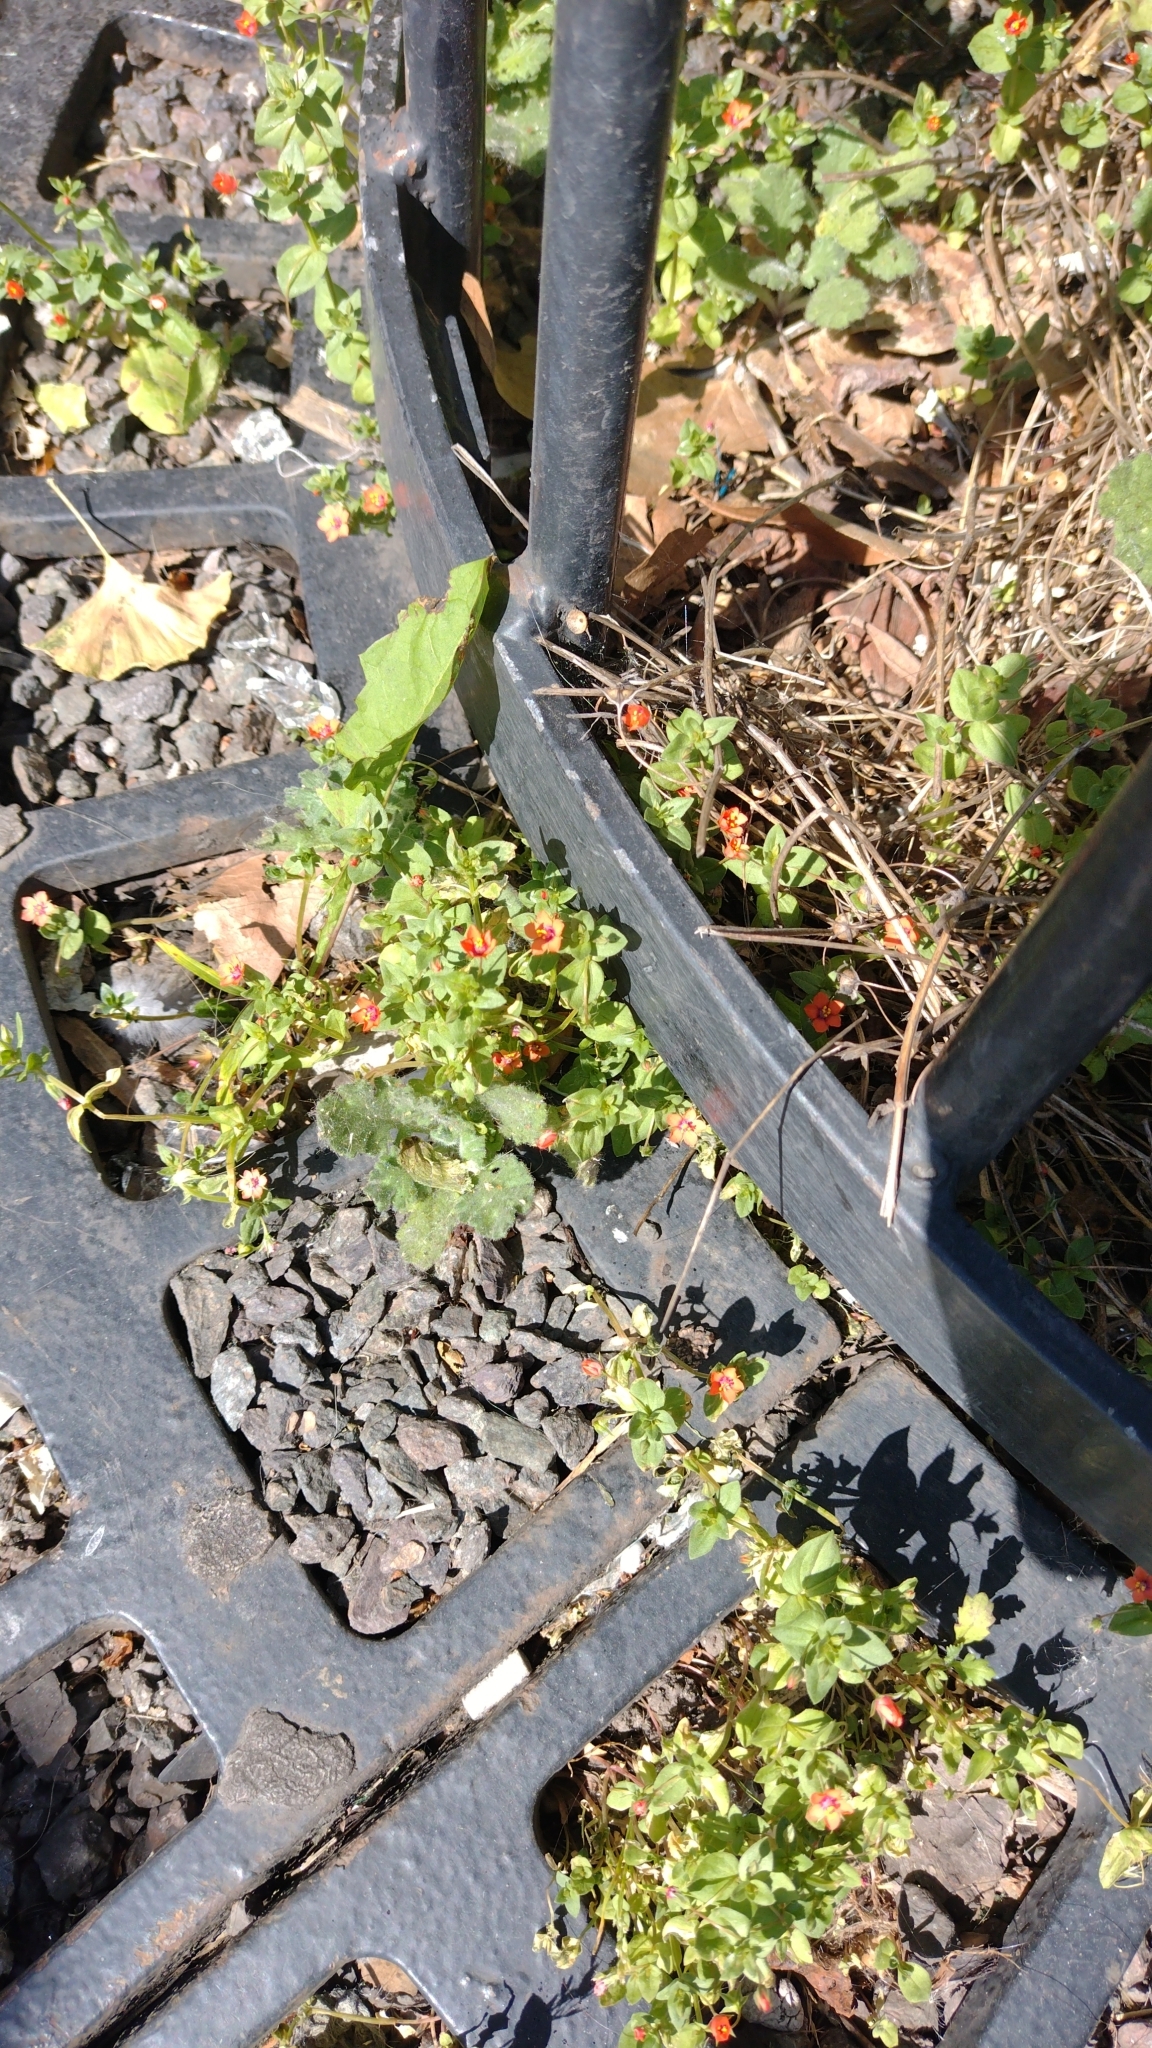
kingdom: Plantae
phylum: Tracheophyta
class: Magnoliopsida
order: Ericales
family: Primulaceae
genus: Lysimachia
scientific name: Lysimachia arvensis
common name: Scarlet pimpernel
